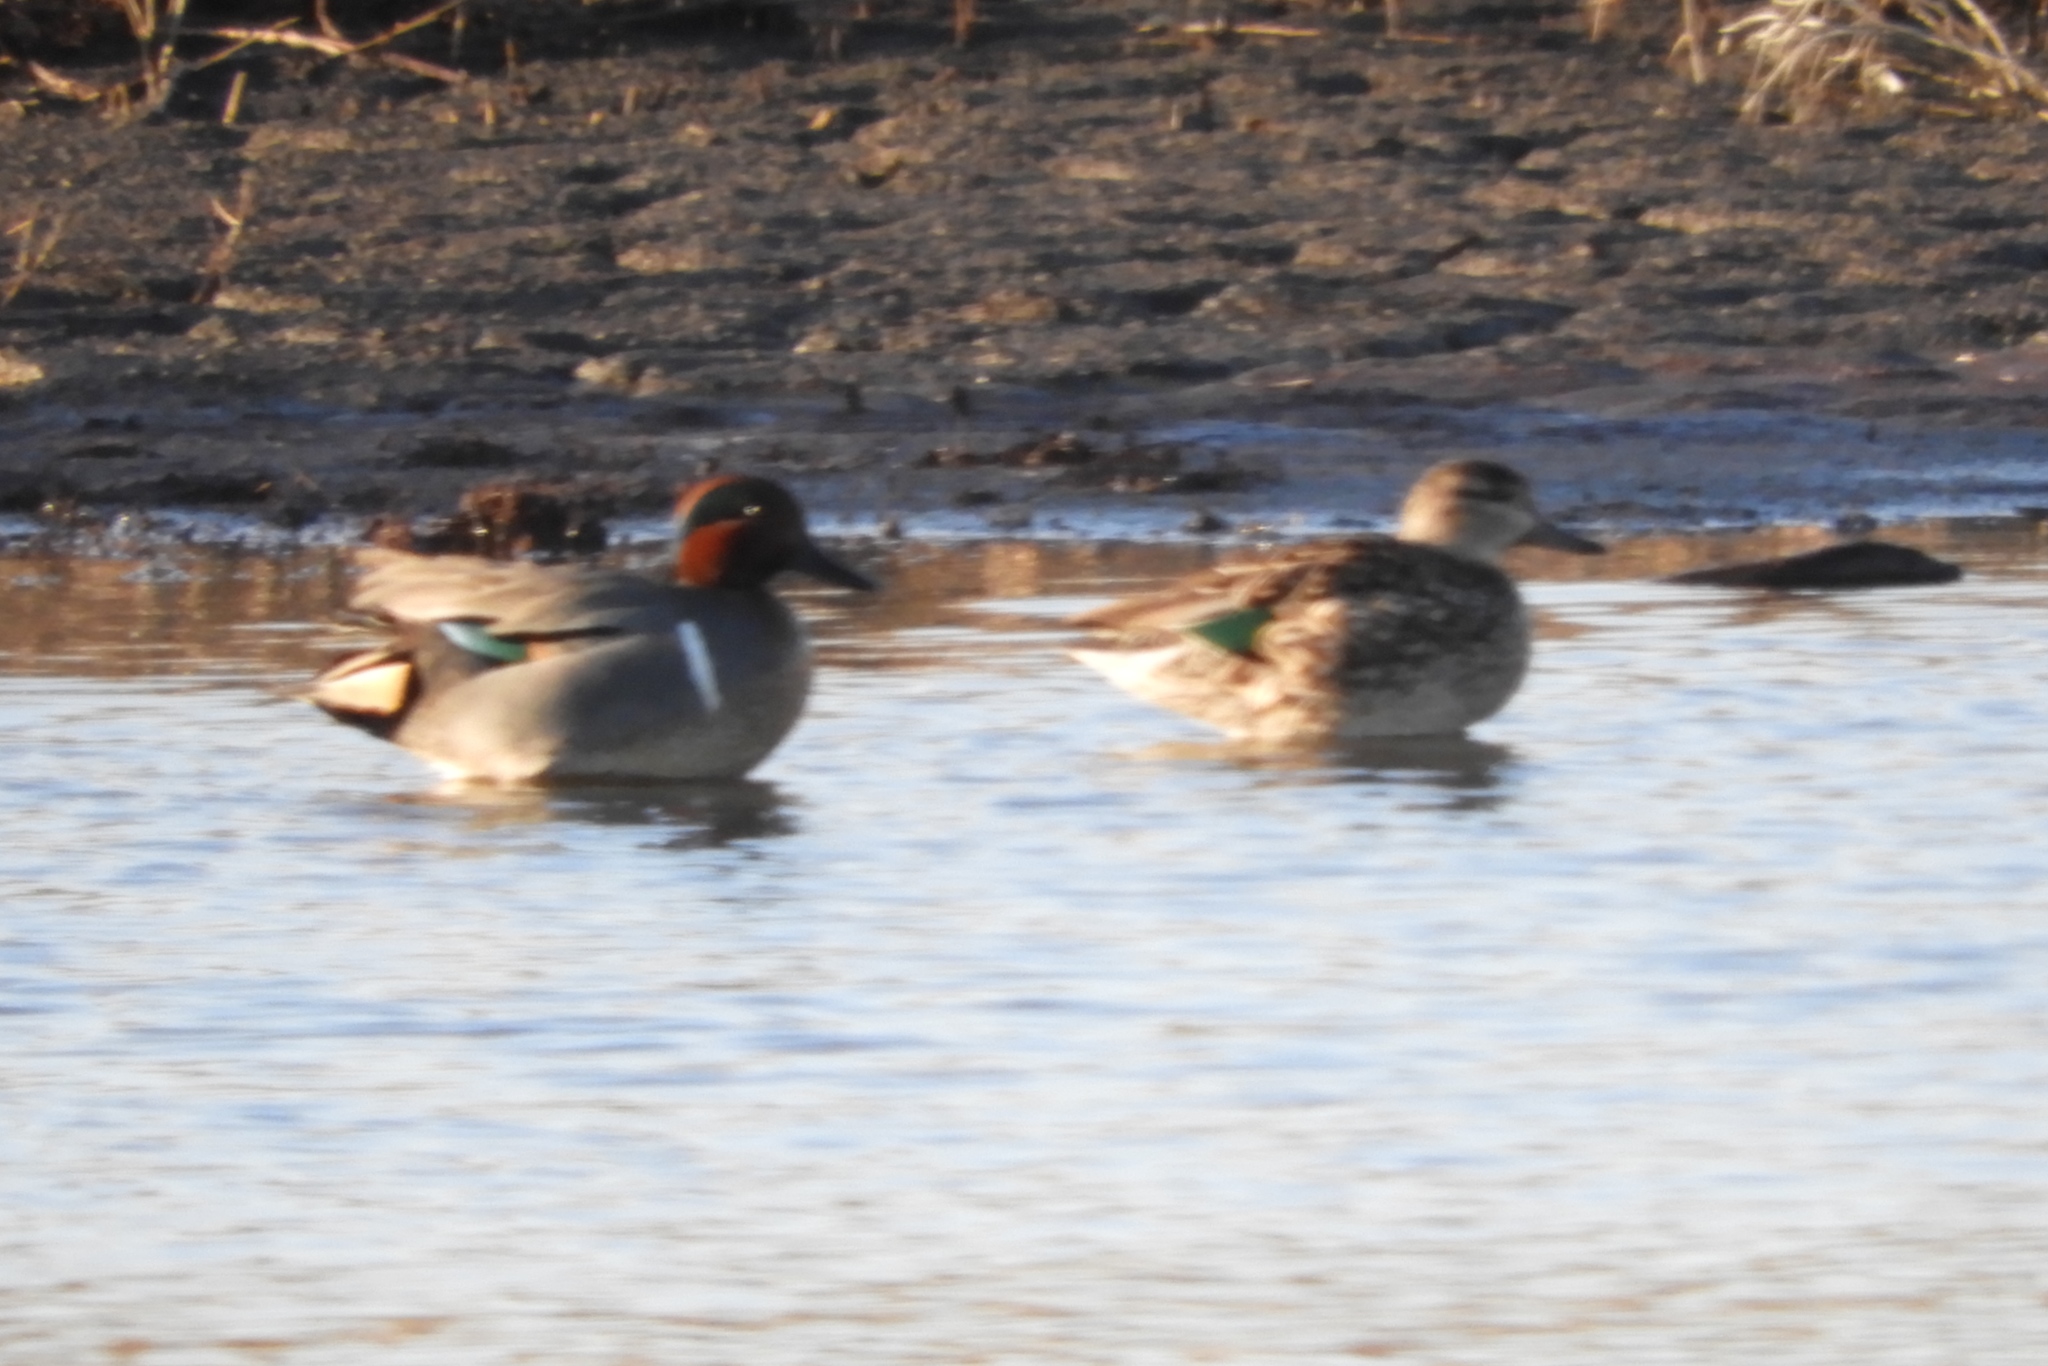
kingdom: Animalia
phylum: Chordata
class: Aves
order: Anseriformes
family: Anatidae
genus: Anas
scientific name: Anas crecca
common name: Eurasian teal
